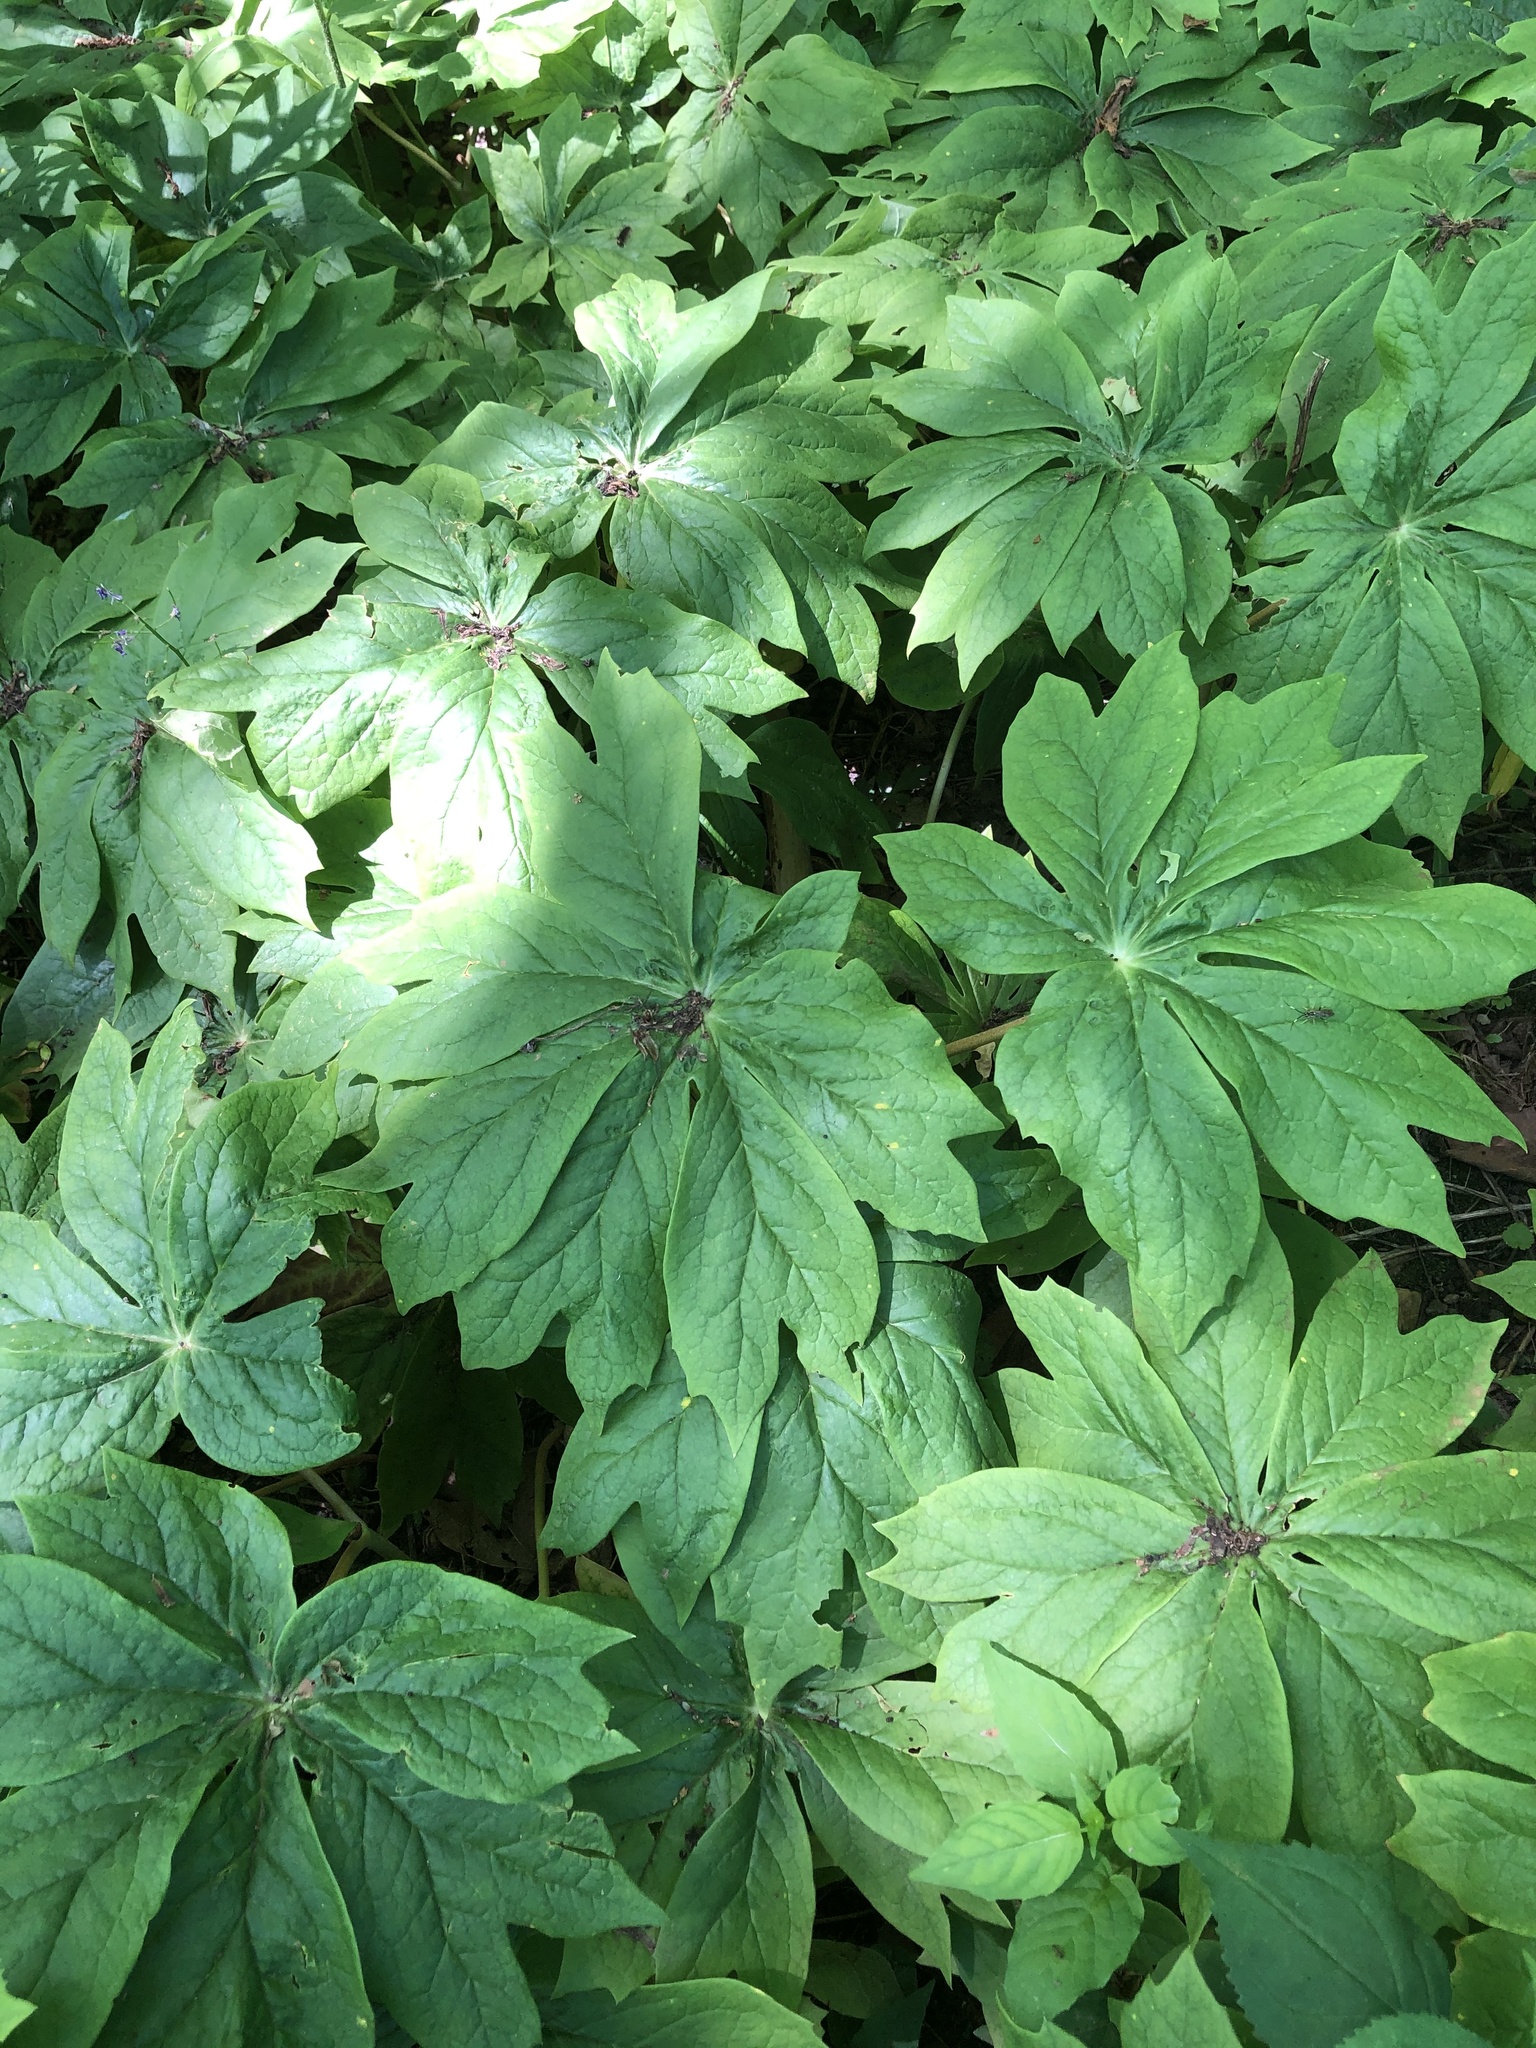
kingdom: Plantae
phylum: Tracheophyta
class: Magnoliopsida
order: Ranunculales
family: Berberidaceae
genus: Podophyllum
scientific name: Podophyllum peltatum
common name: Wild mandrake
